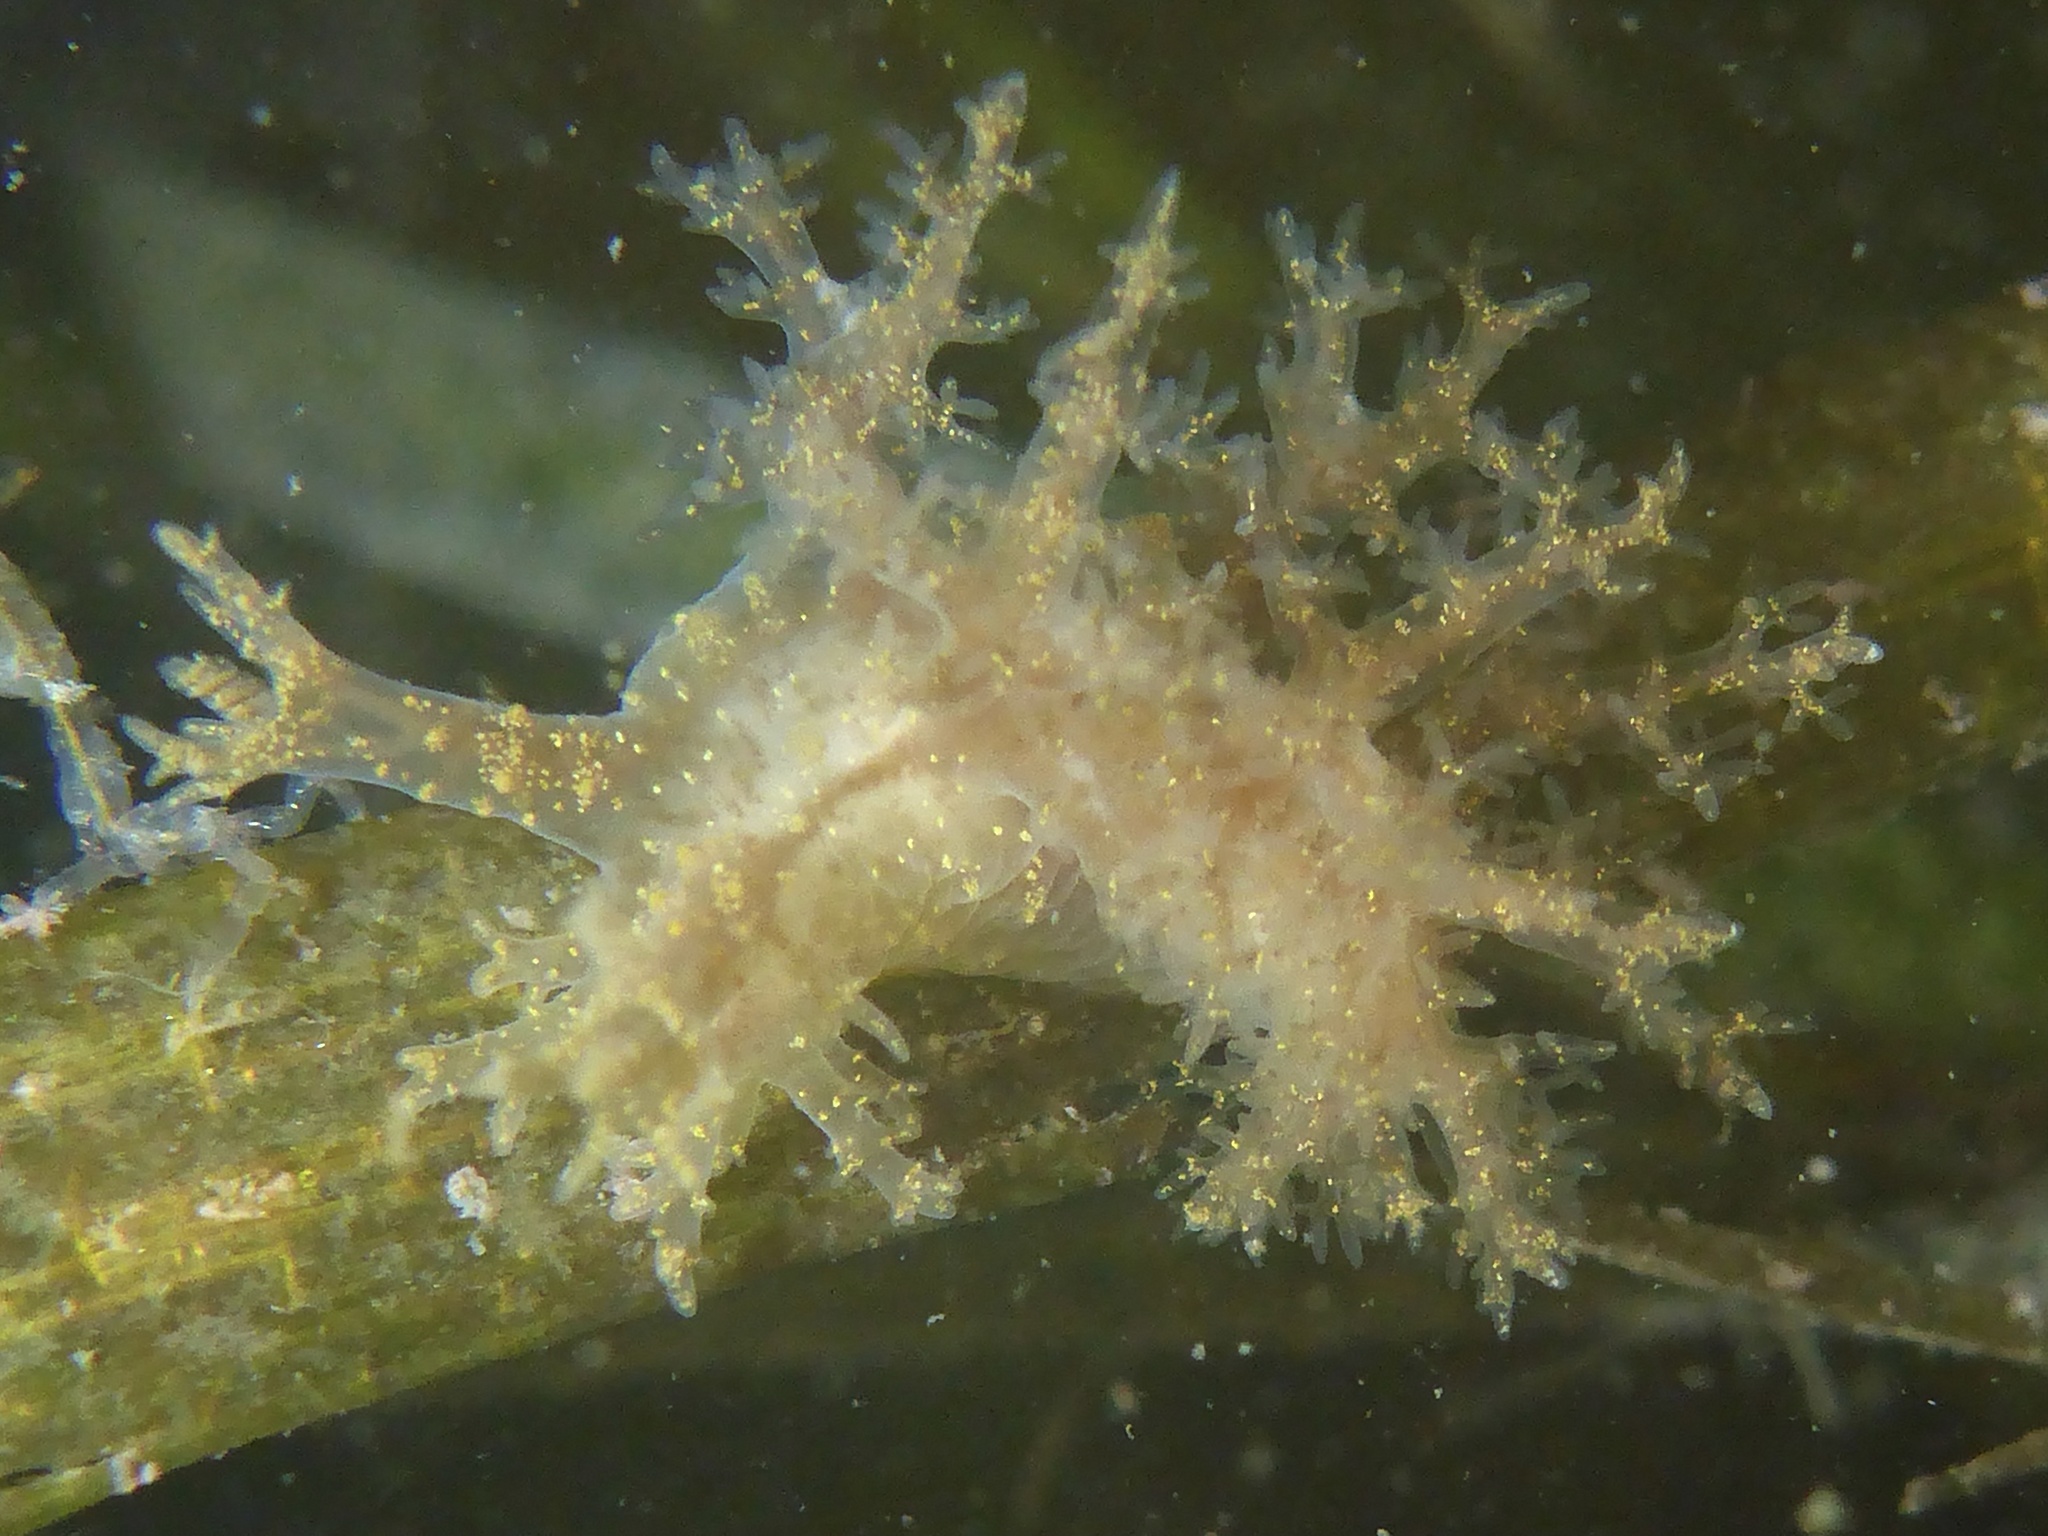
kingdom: Animalia
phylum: Mollusca
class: Gastropoda
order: Nudibranchia
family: Dendronotidae
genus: Dendronotus
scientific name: Dendronotus venustus
